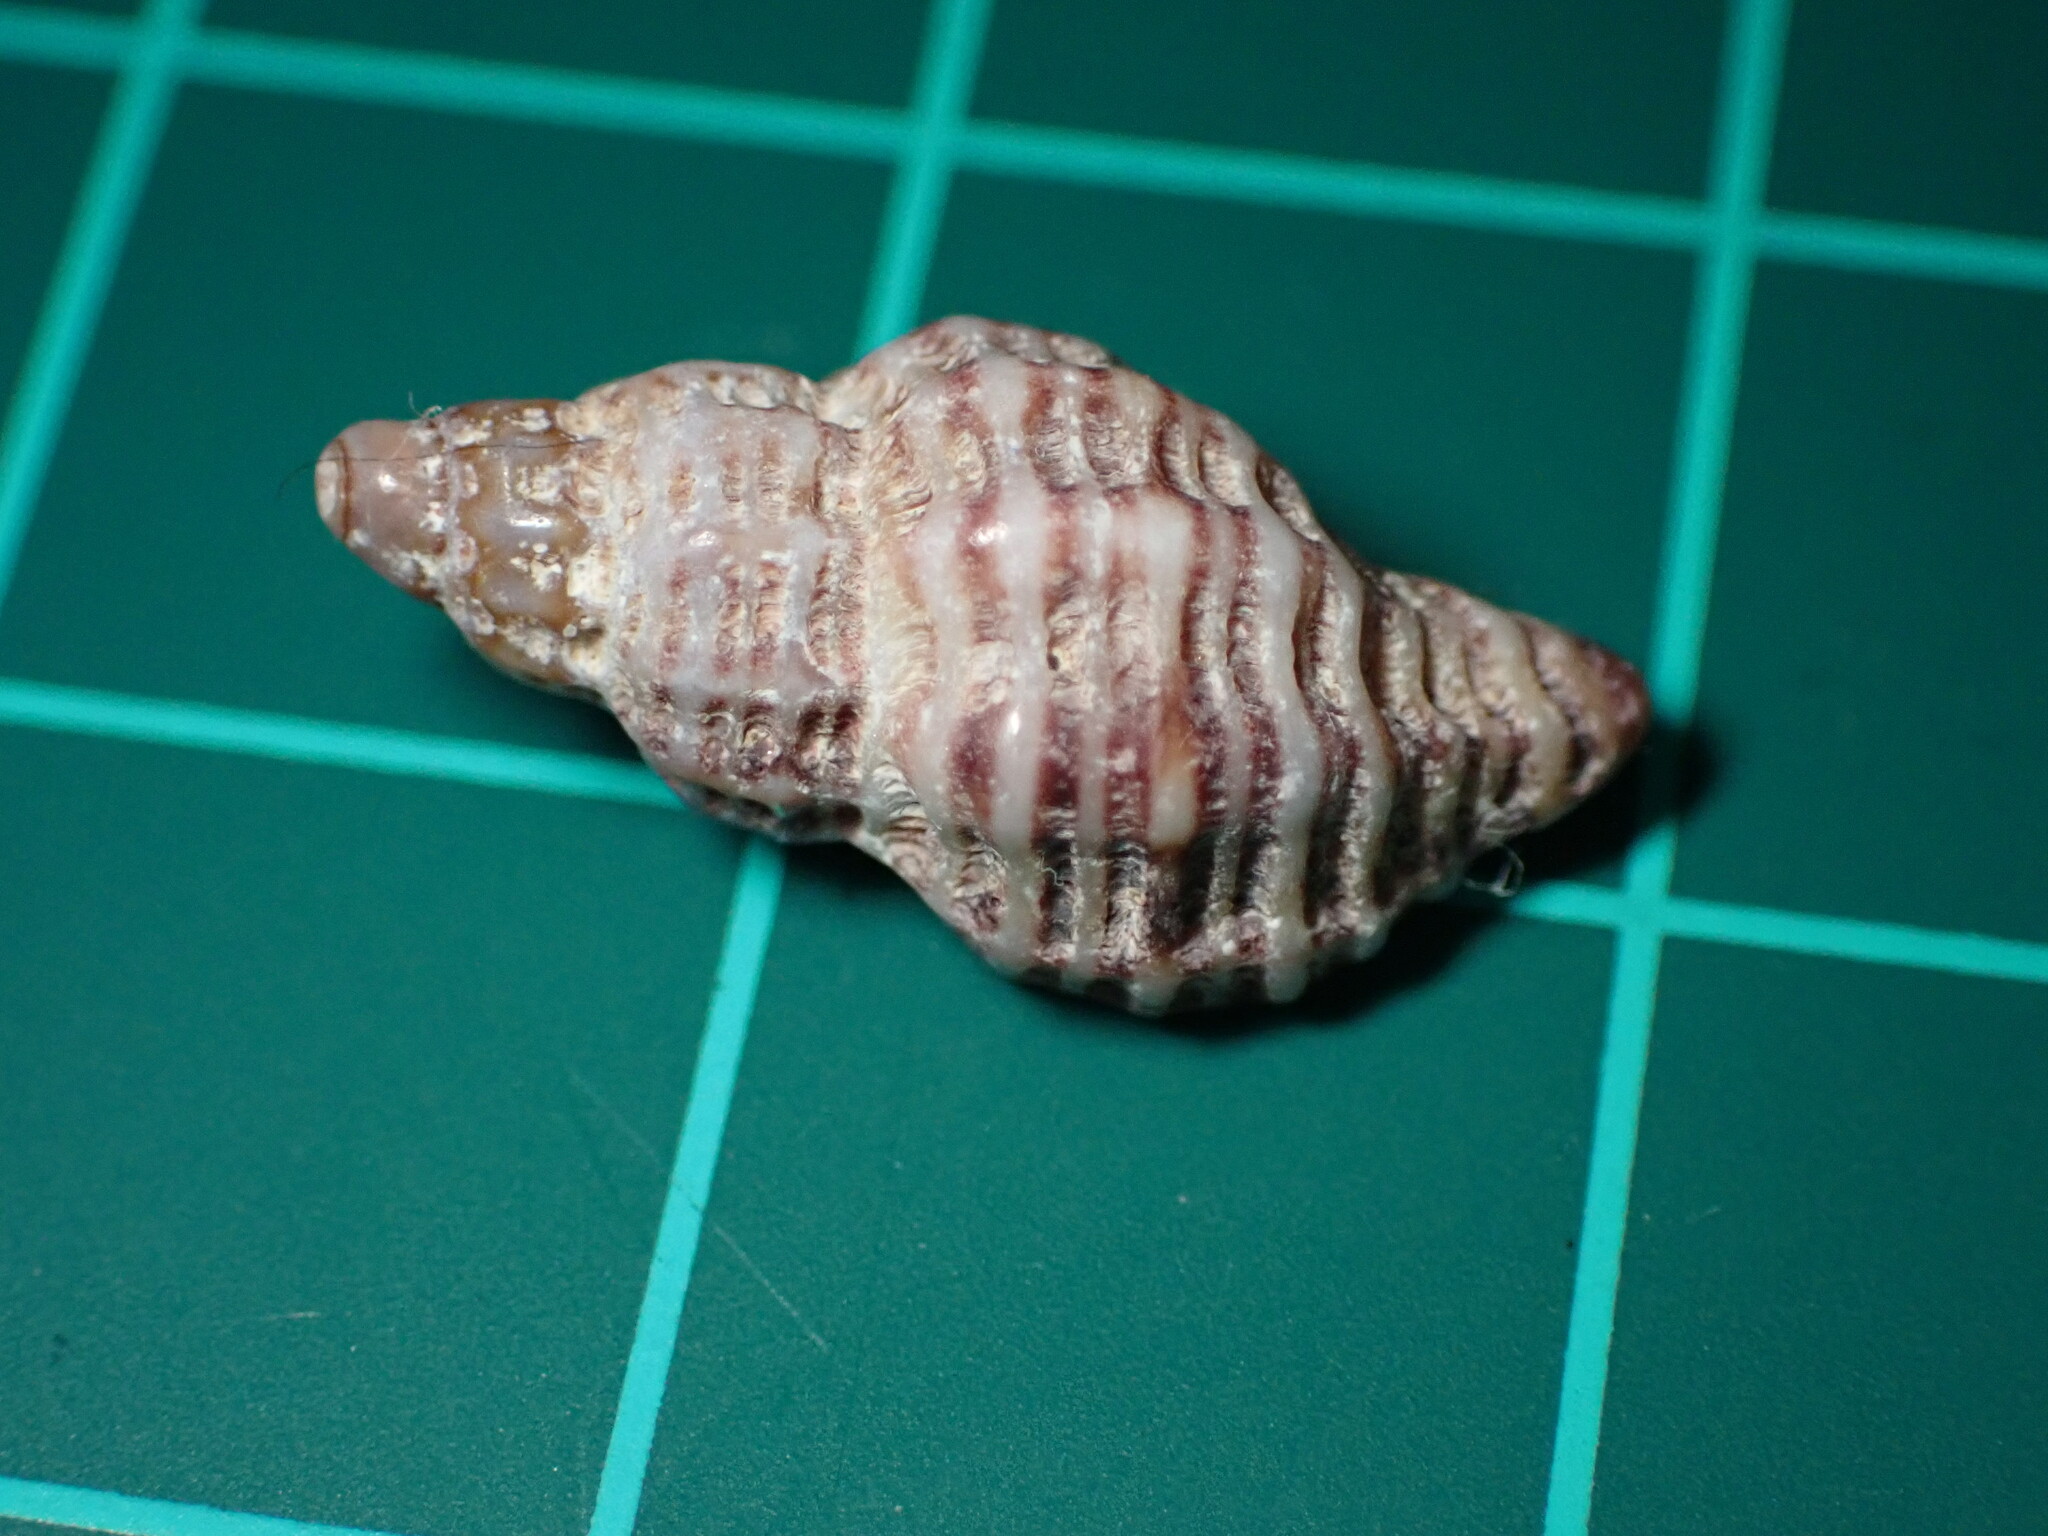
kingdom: Animalia
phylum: Mollusca
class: Gastropoda
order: Neogastropoda
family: Nassariidae
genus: Nassarius
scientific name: Nassarius mendicus
